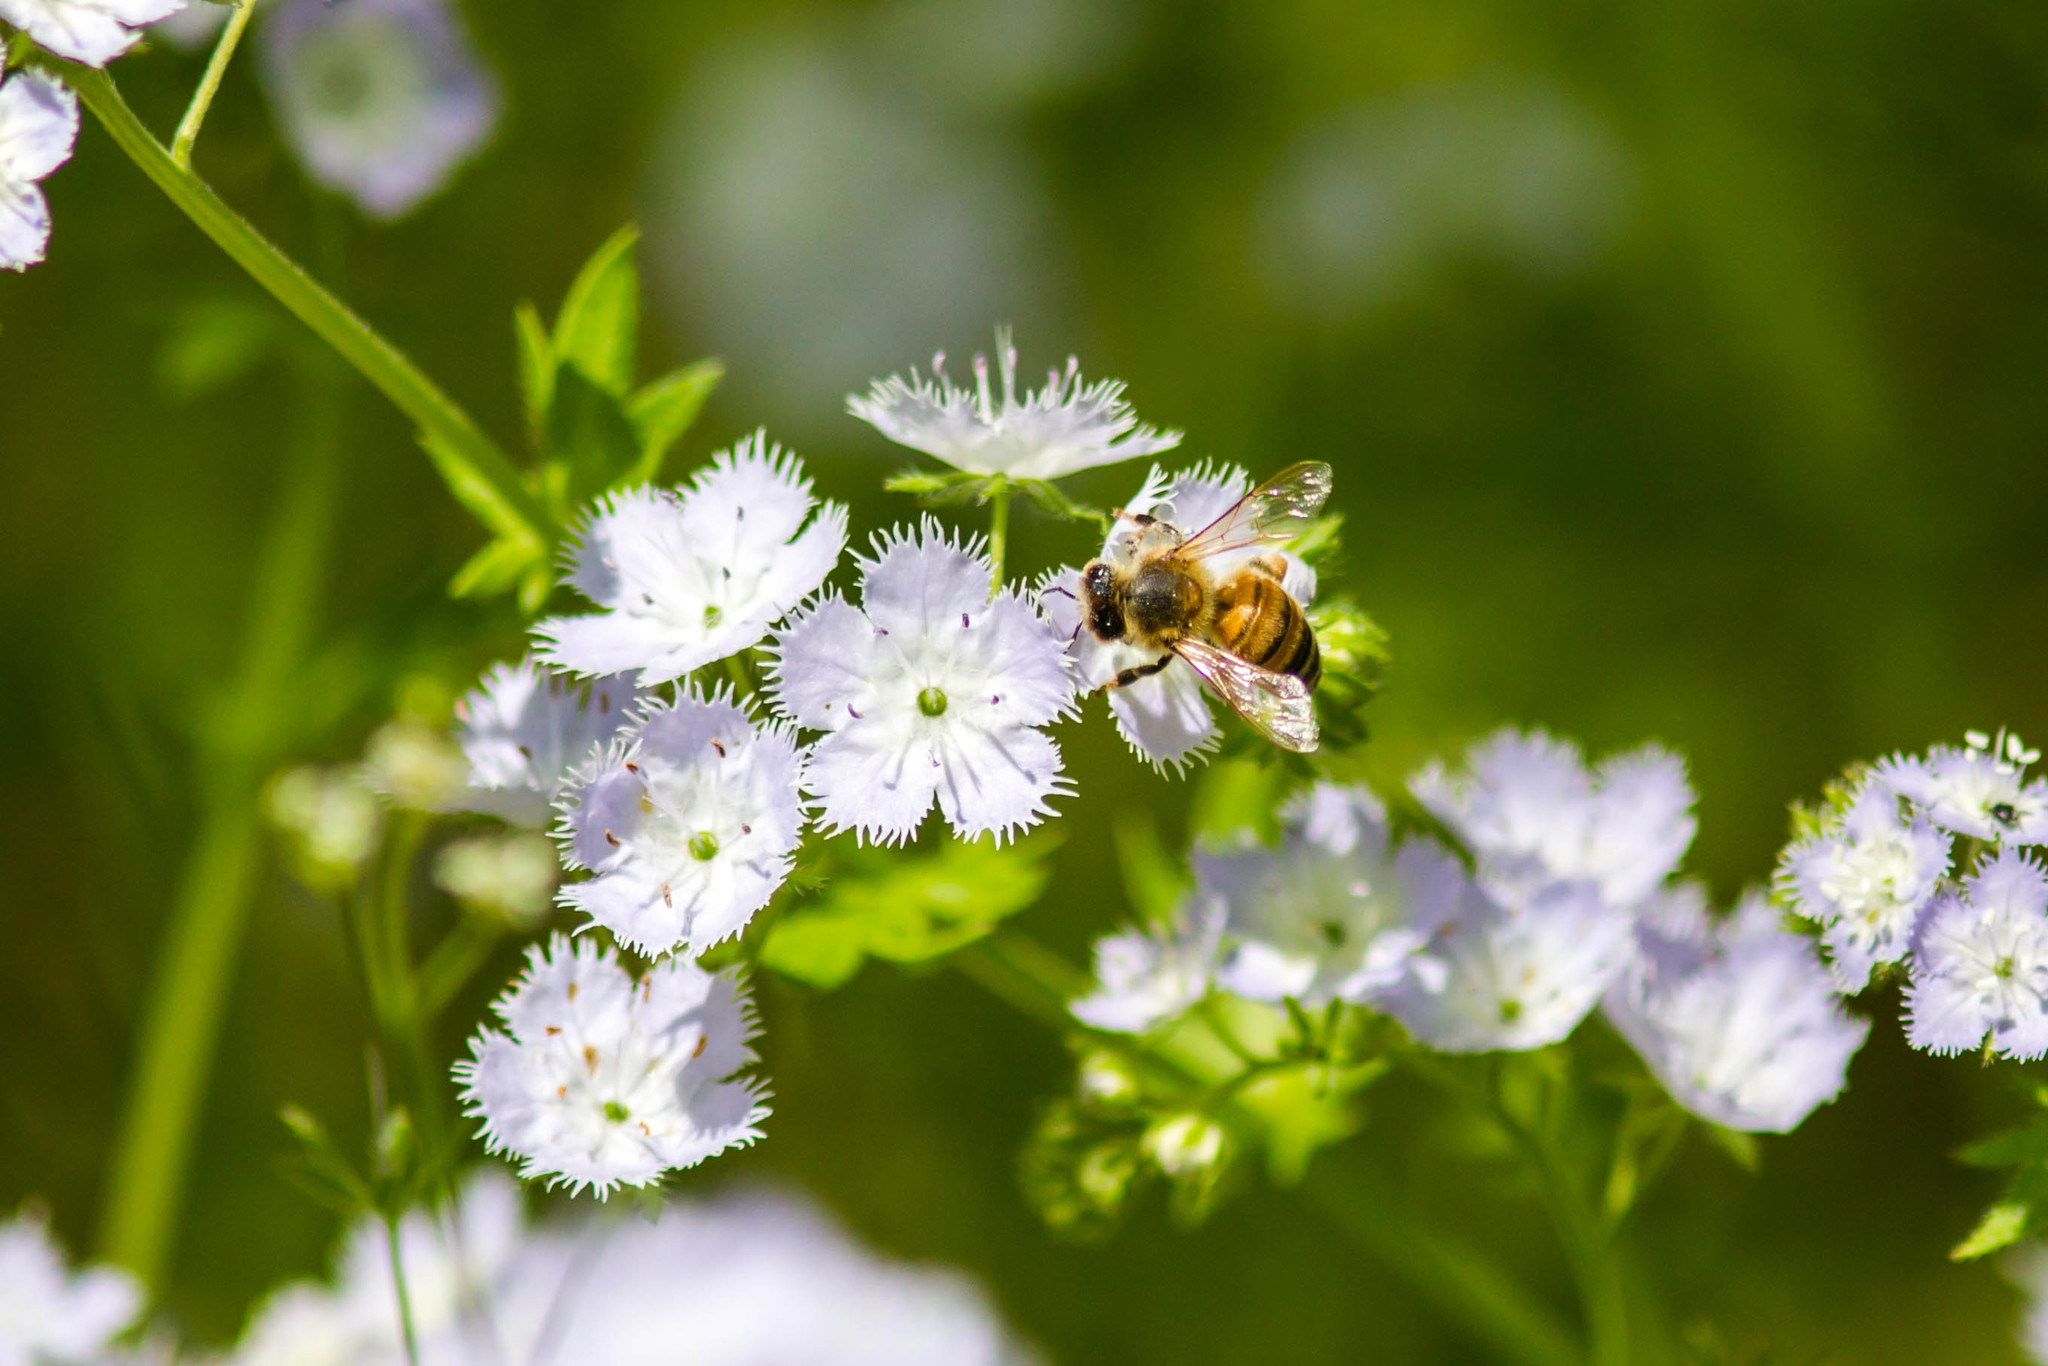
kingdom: Animalia
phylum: Arthropoda
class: Insecta
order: Hymenoptera
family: Apidae
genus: Apis
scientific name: Apis mellifera
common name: Honey bee
